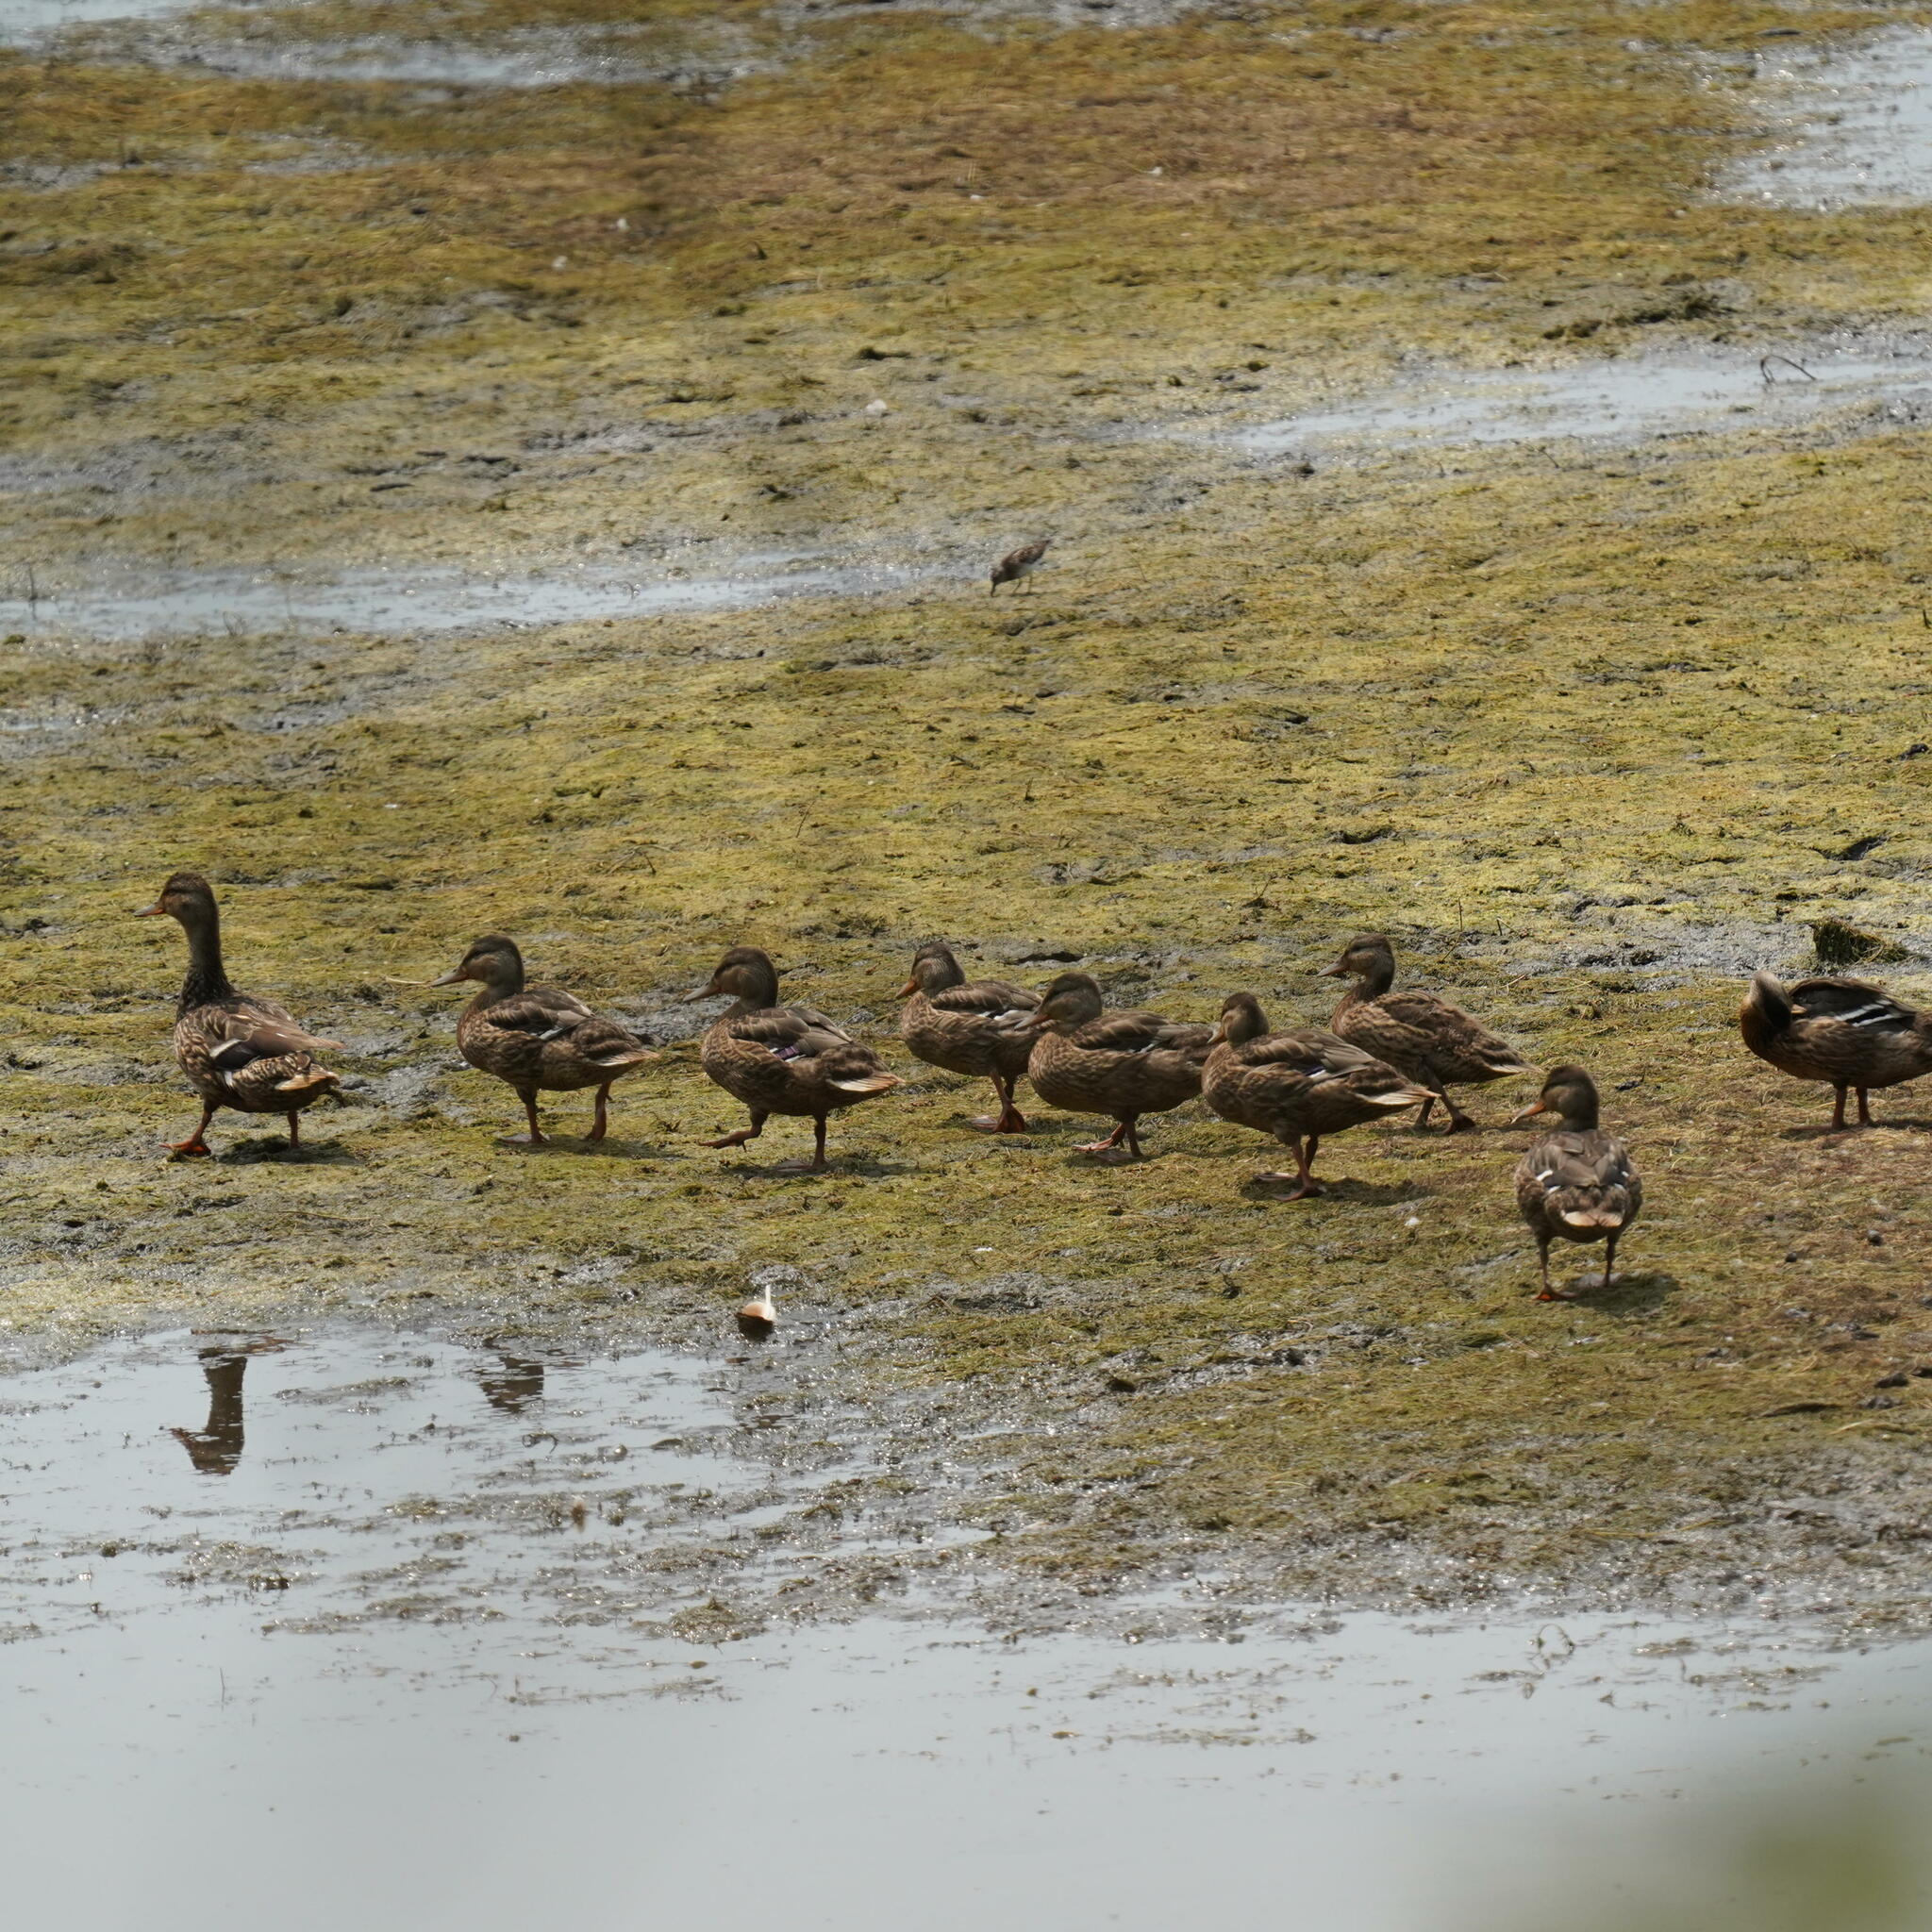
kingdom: Animalia
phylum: Chordata
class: Aves
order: Anseriformes
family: Anatidae
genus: Anas
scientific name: Anas platyrhynchos
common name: Mallard
